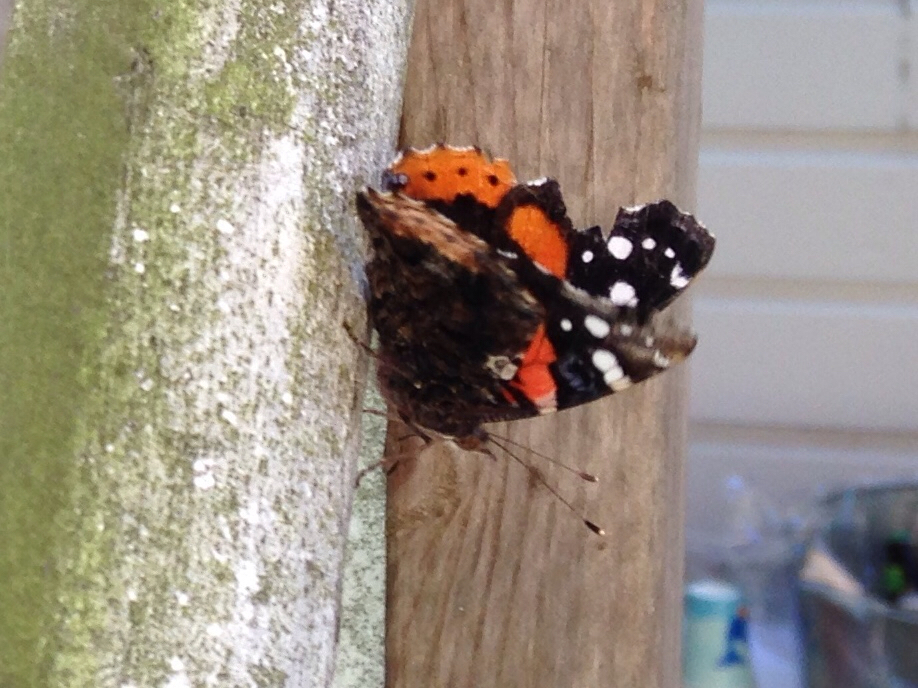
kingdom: Animalia
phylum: Arthropoda
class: Insecta
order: Lepidoptera
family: Nymphalidae
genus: Vanessa
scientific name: Vanessa atalanta
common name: Red admiral
